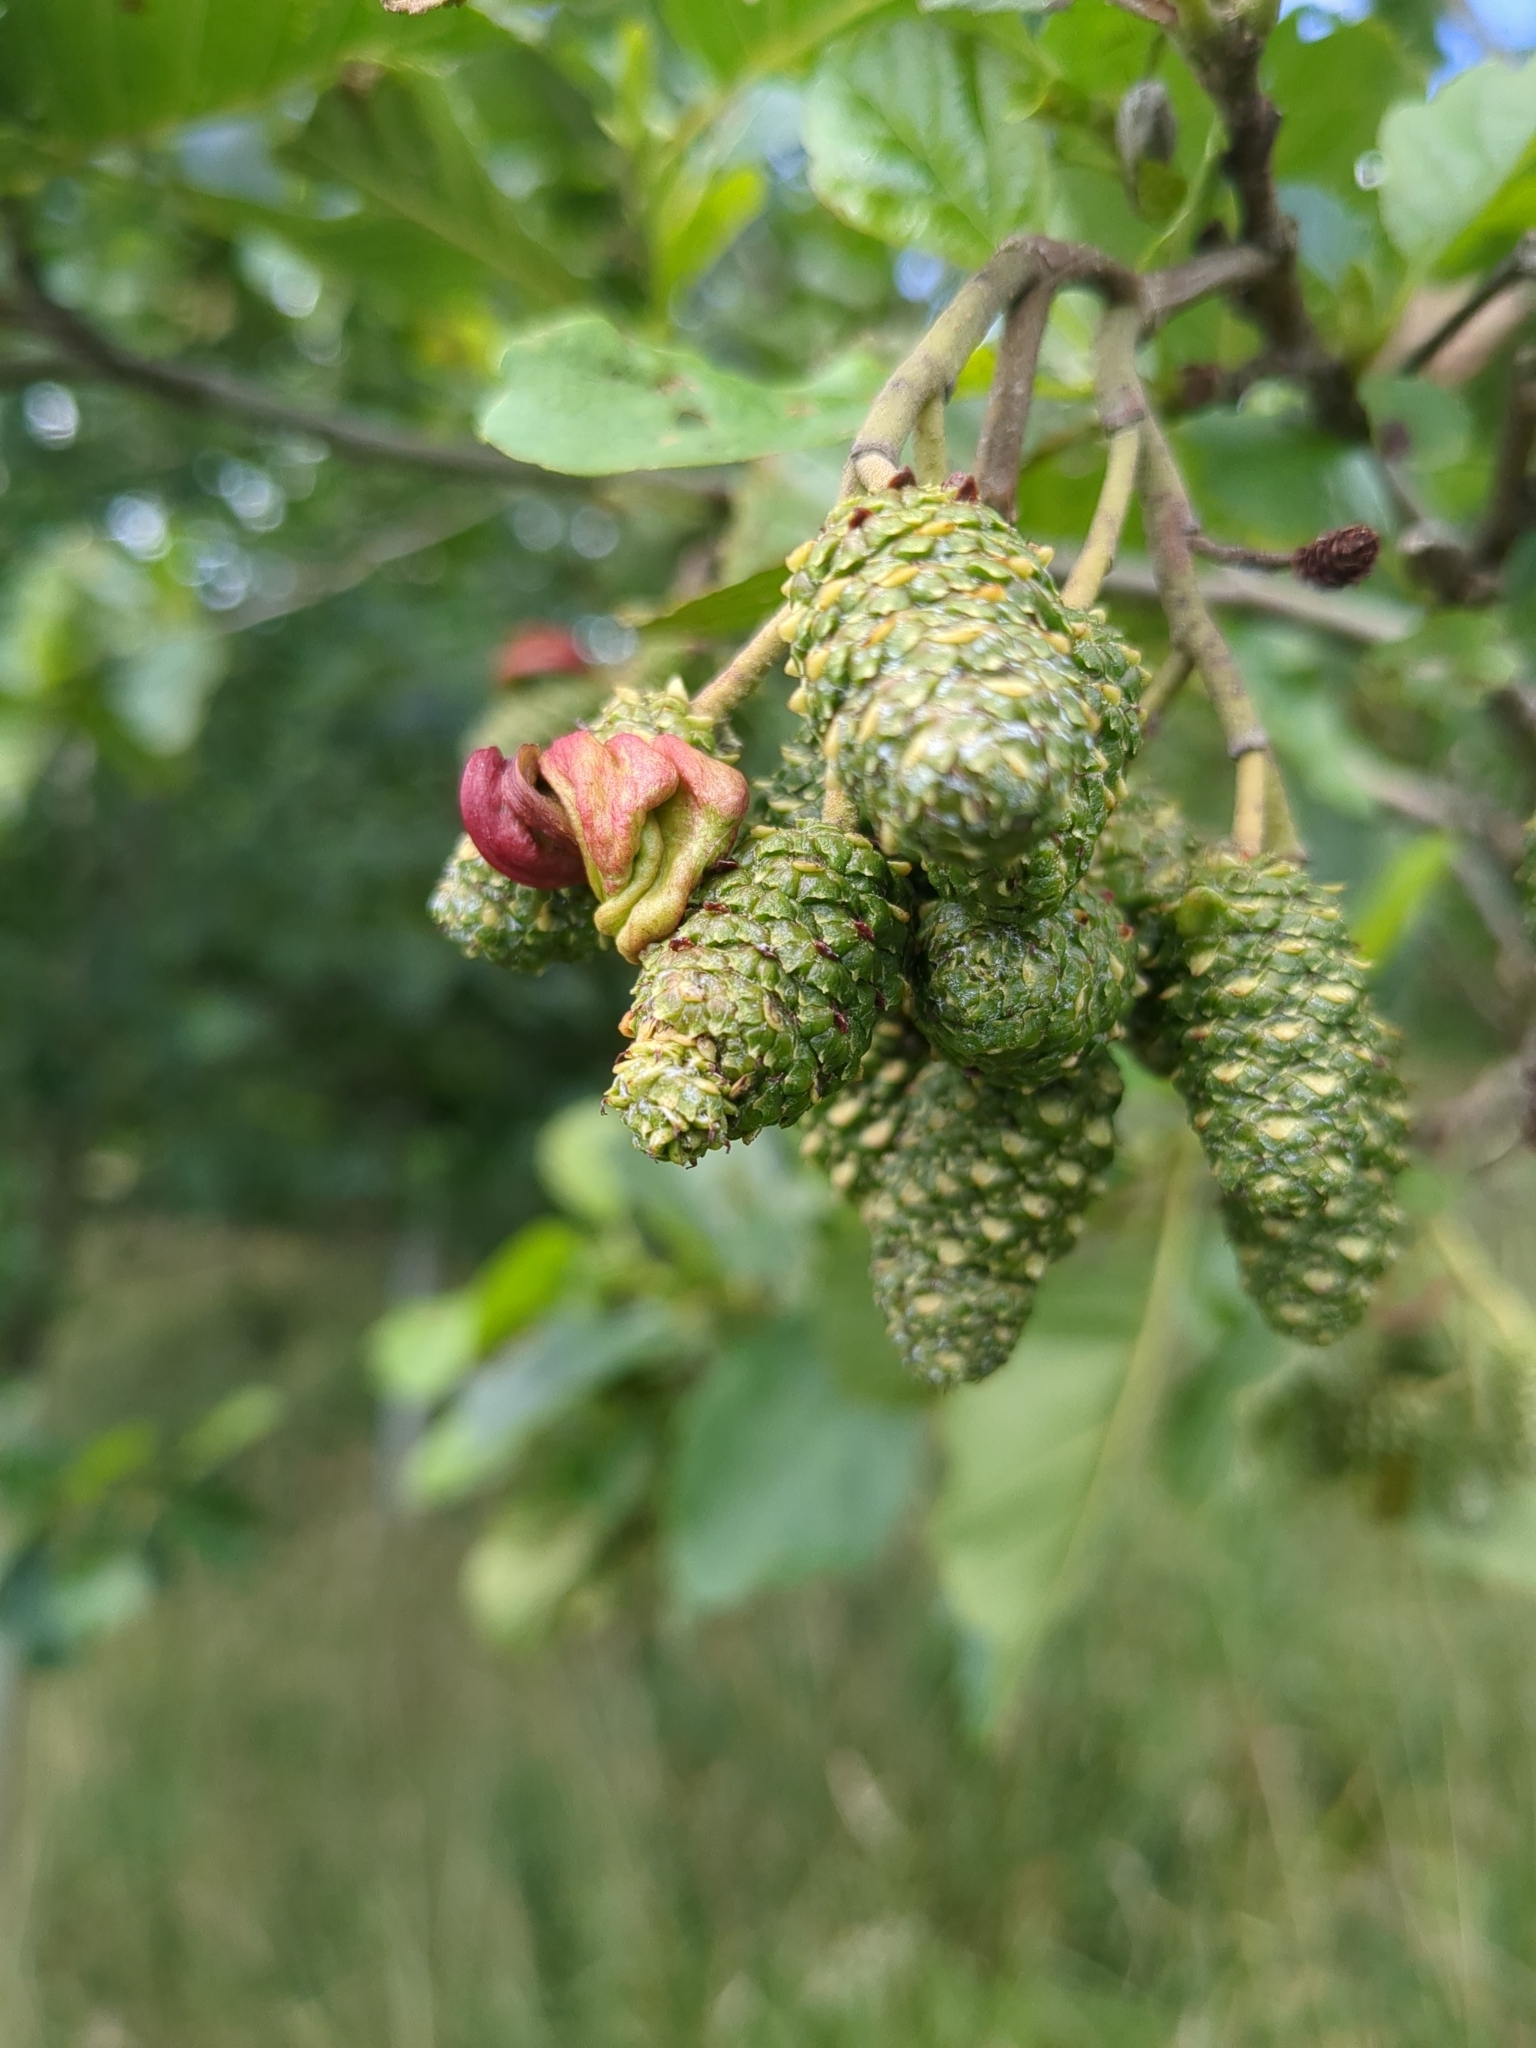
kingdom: Fungi
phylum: Ascomycota
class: Taphrinomycetes
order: Taphrinales
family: Taphrinaceae
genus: Taphrina
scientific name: Taphrina alni
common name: Alder tongue
